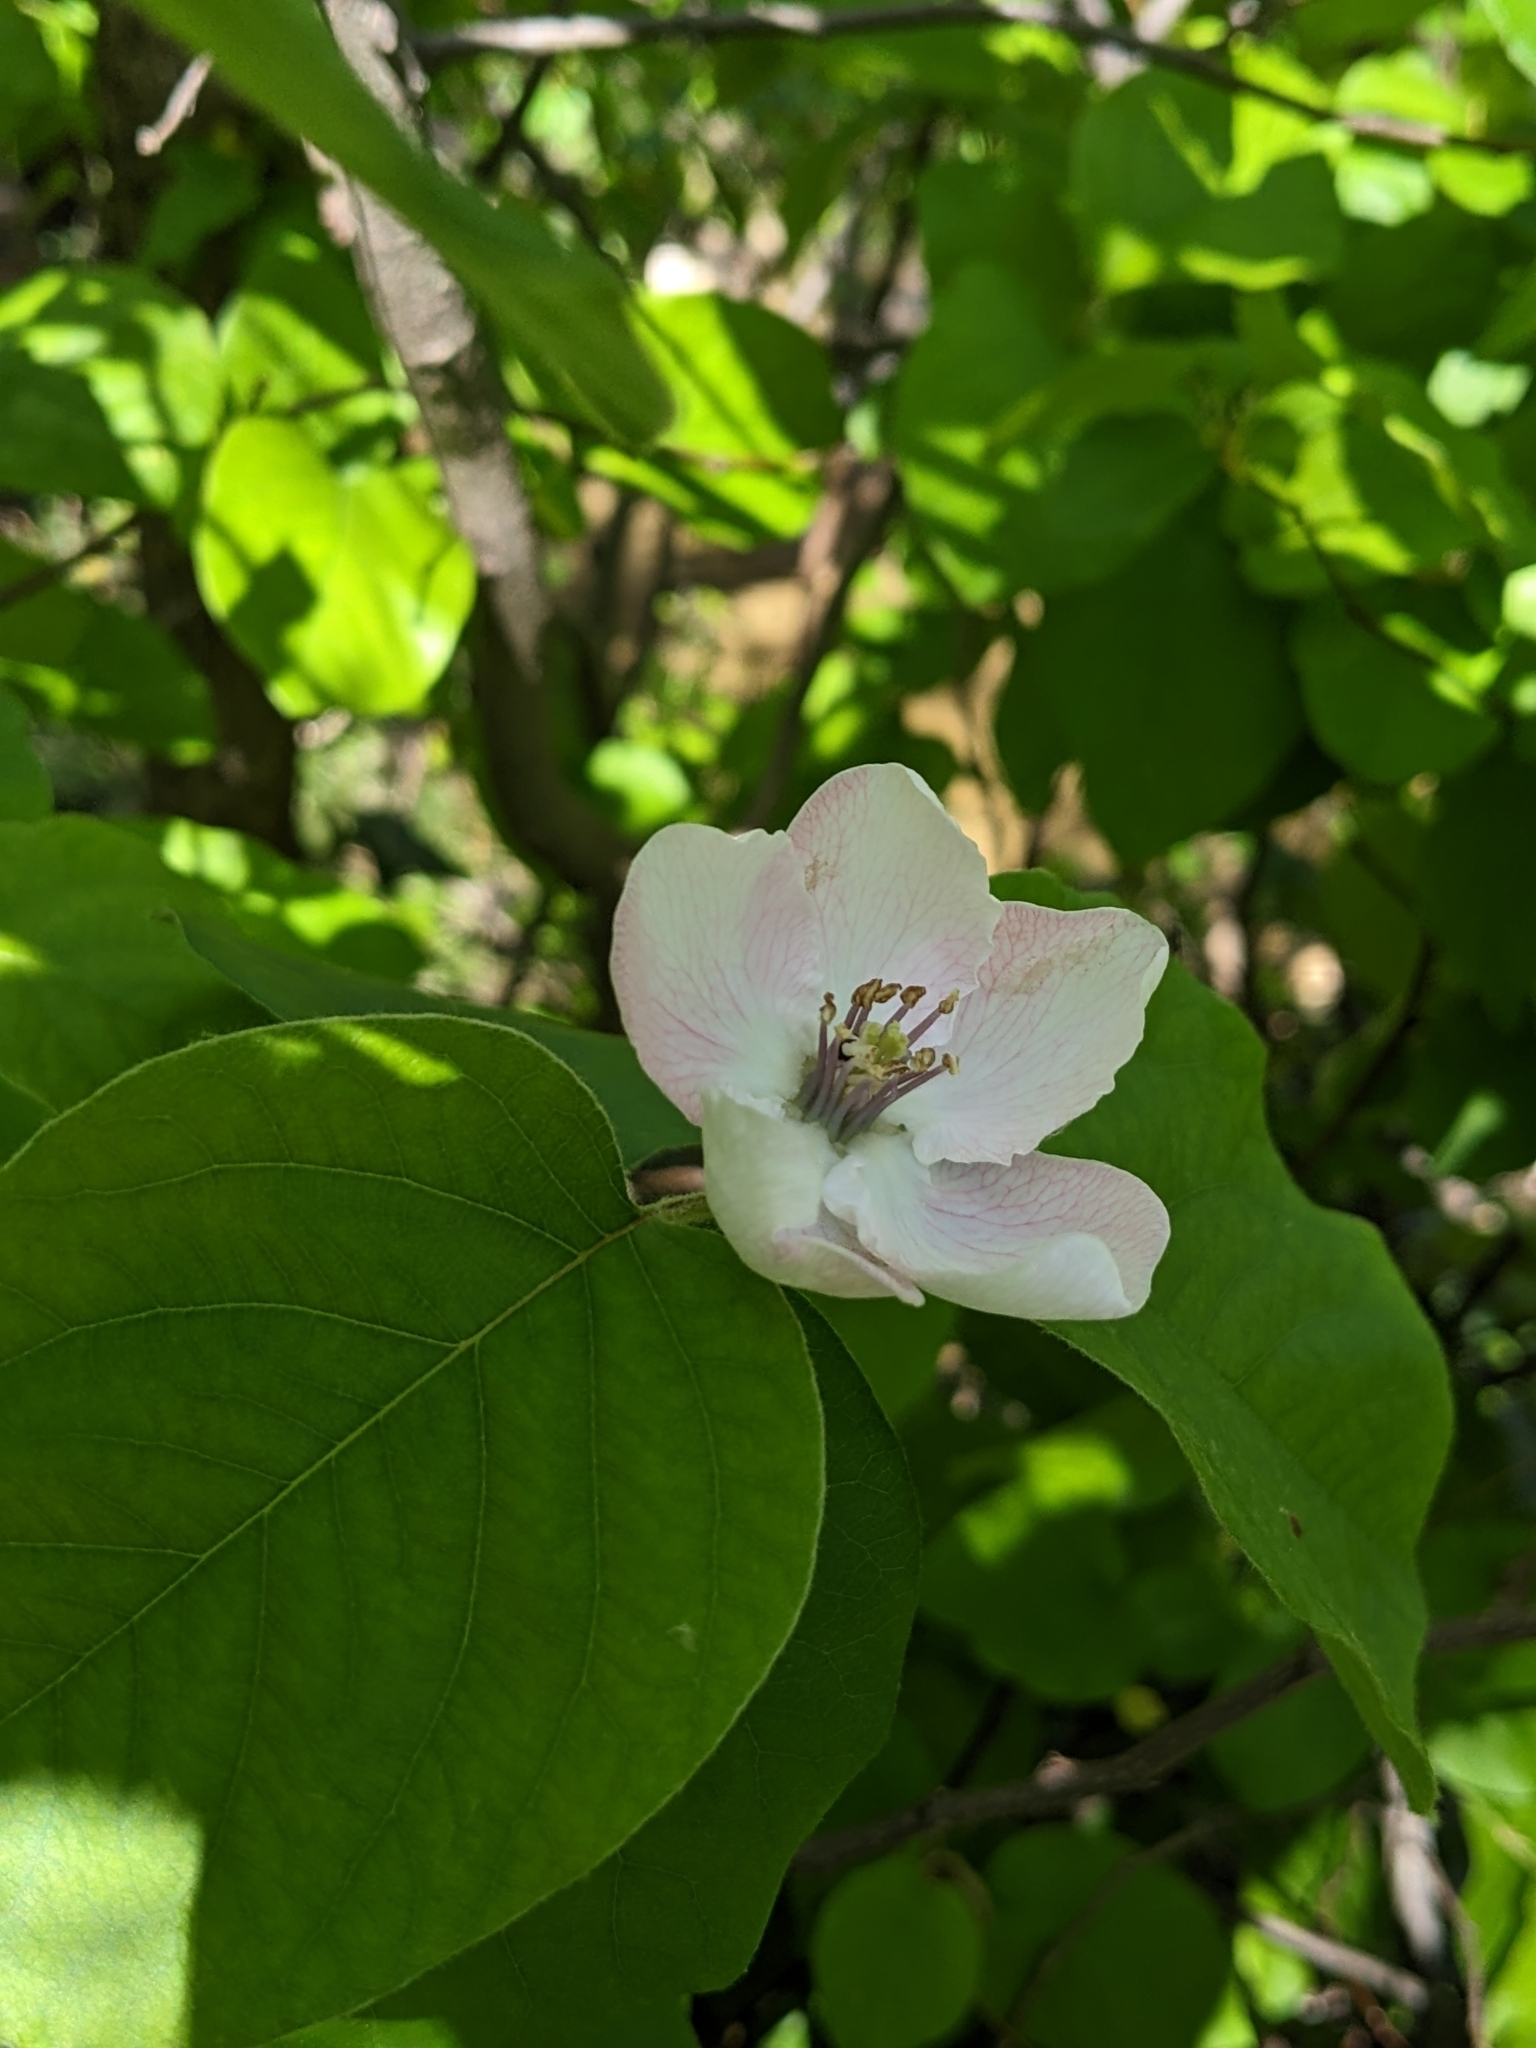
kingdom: Plantae
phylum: Tracheophyta
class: Magnoliopsida
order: Rosales
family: Rosaceae
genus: Cydonia
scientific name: Cydonia oblonga
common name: Quince
